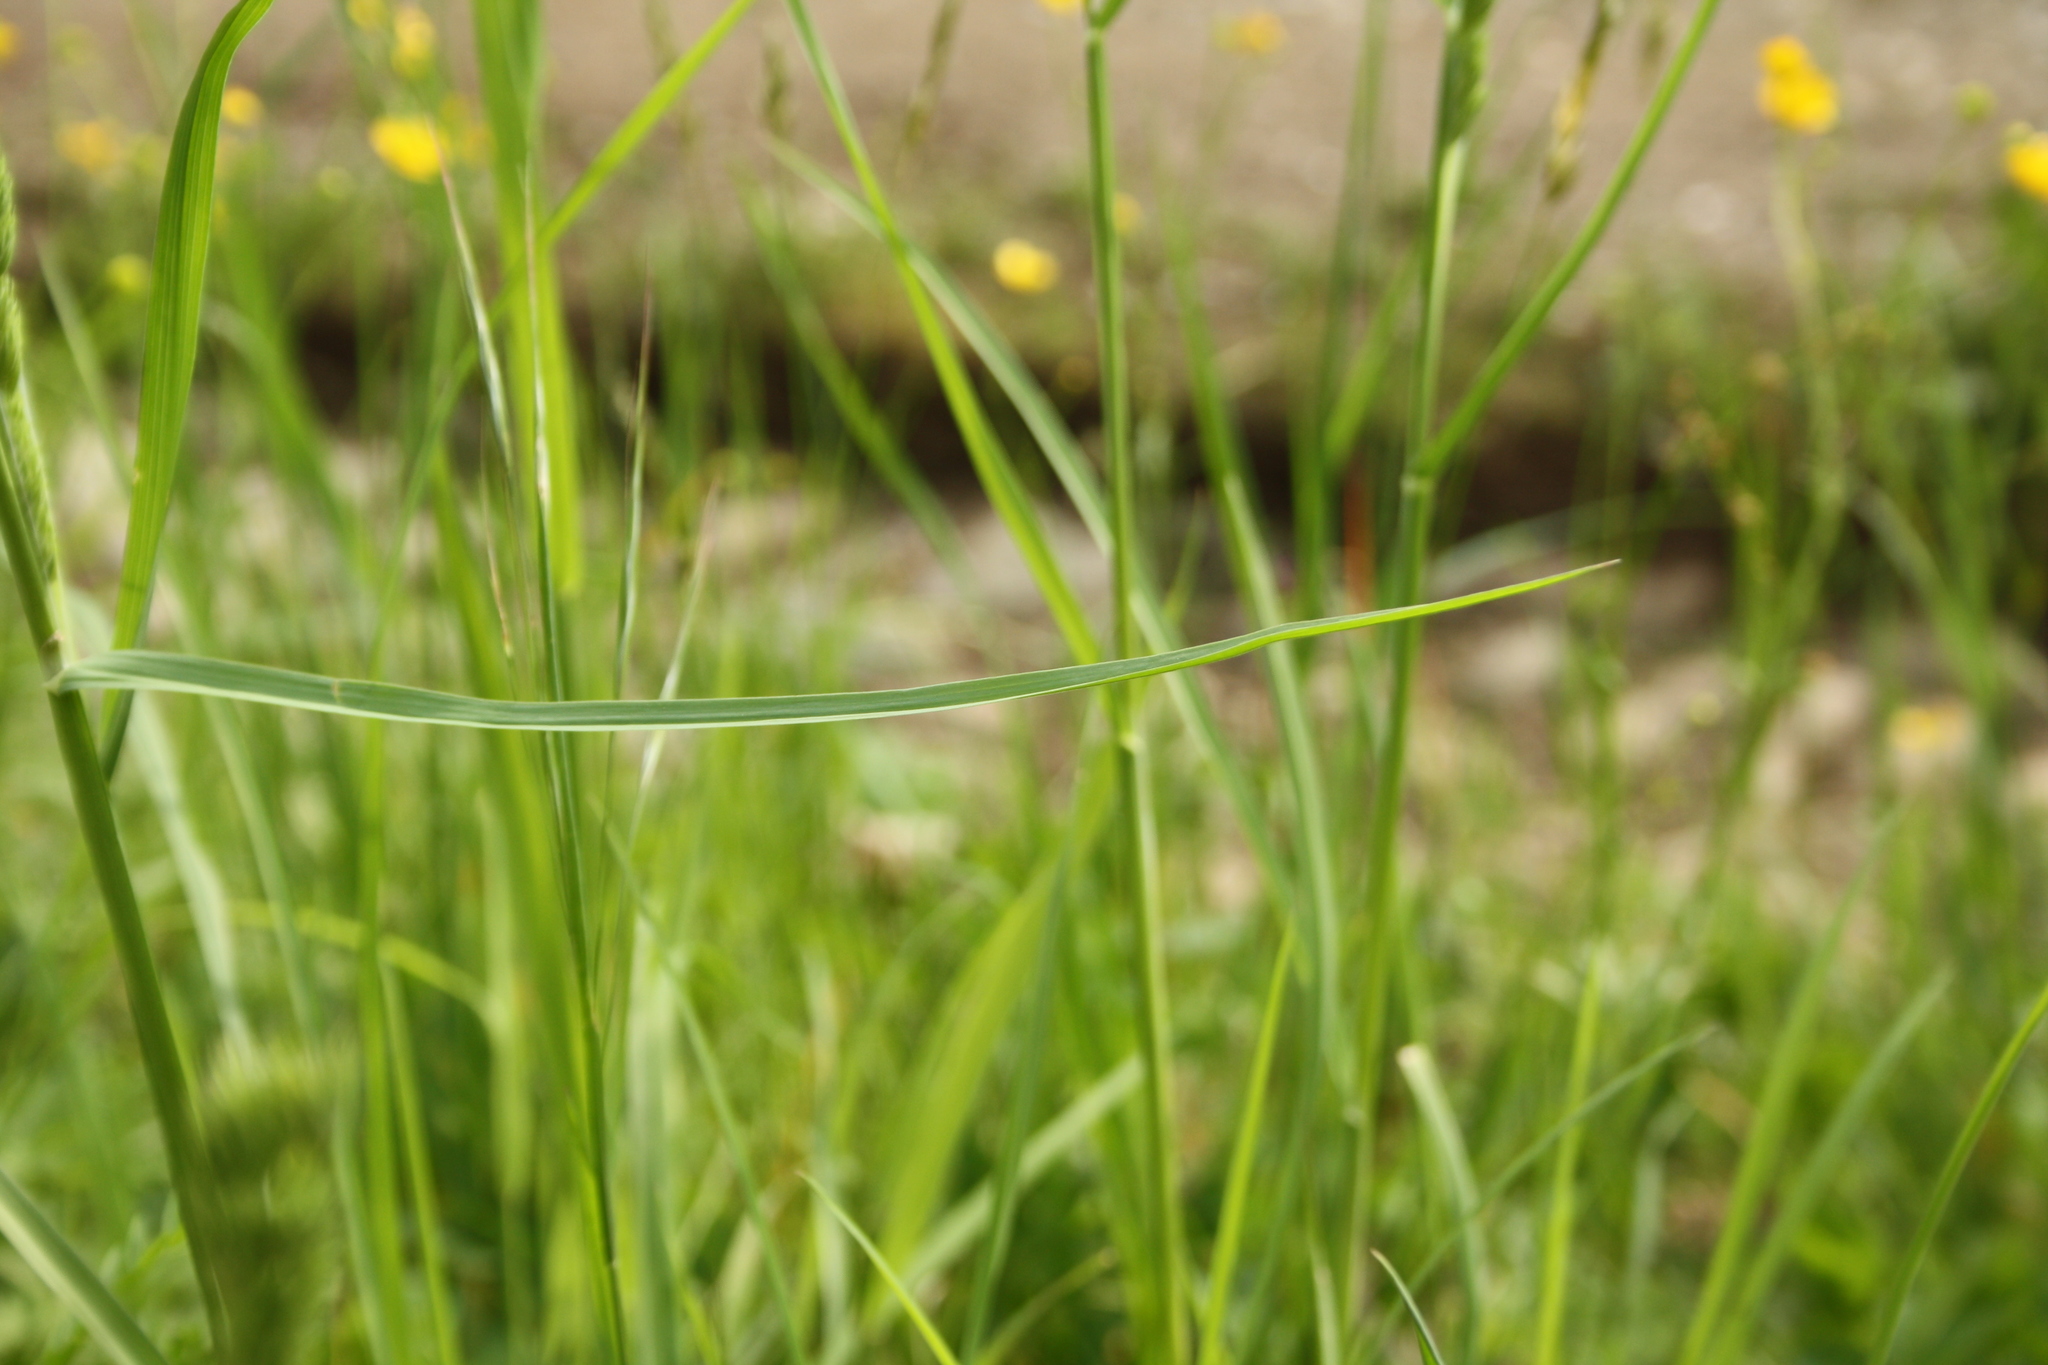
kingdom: Plantae
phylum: Tracheophyta
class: Liliopsida
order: Poales
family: Poaceae
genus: Dactylis
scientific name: Dactylis glomerata
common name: Orchardgrass
